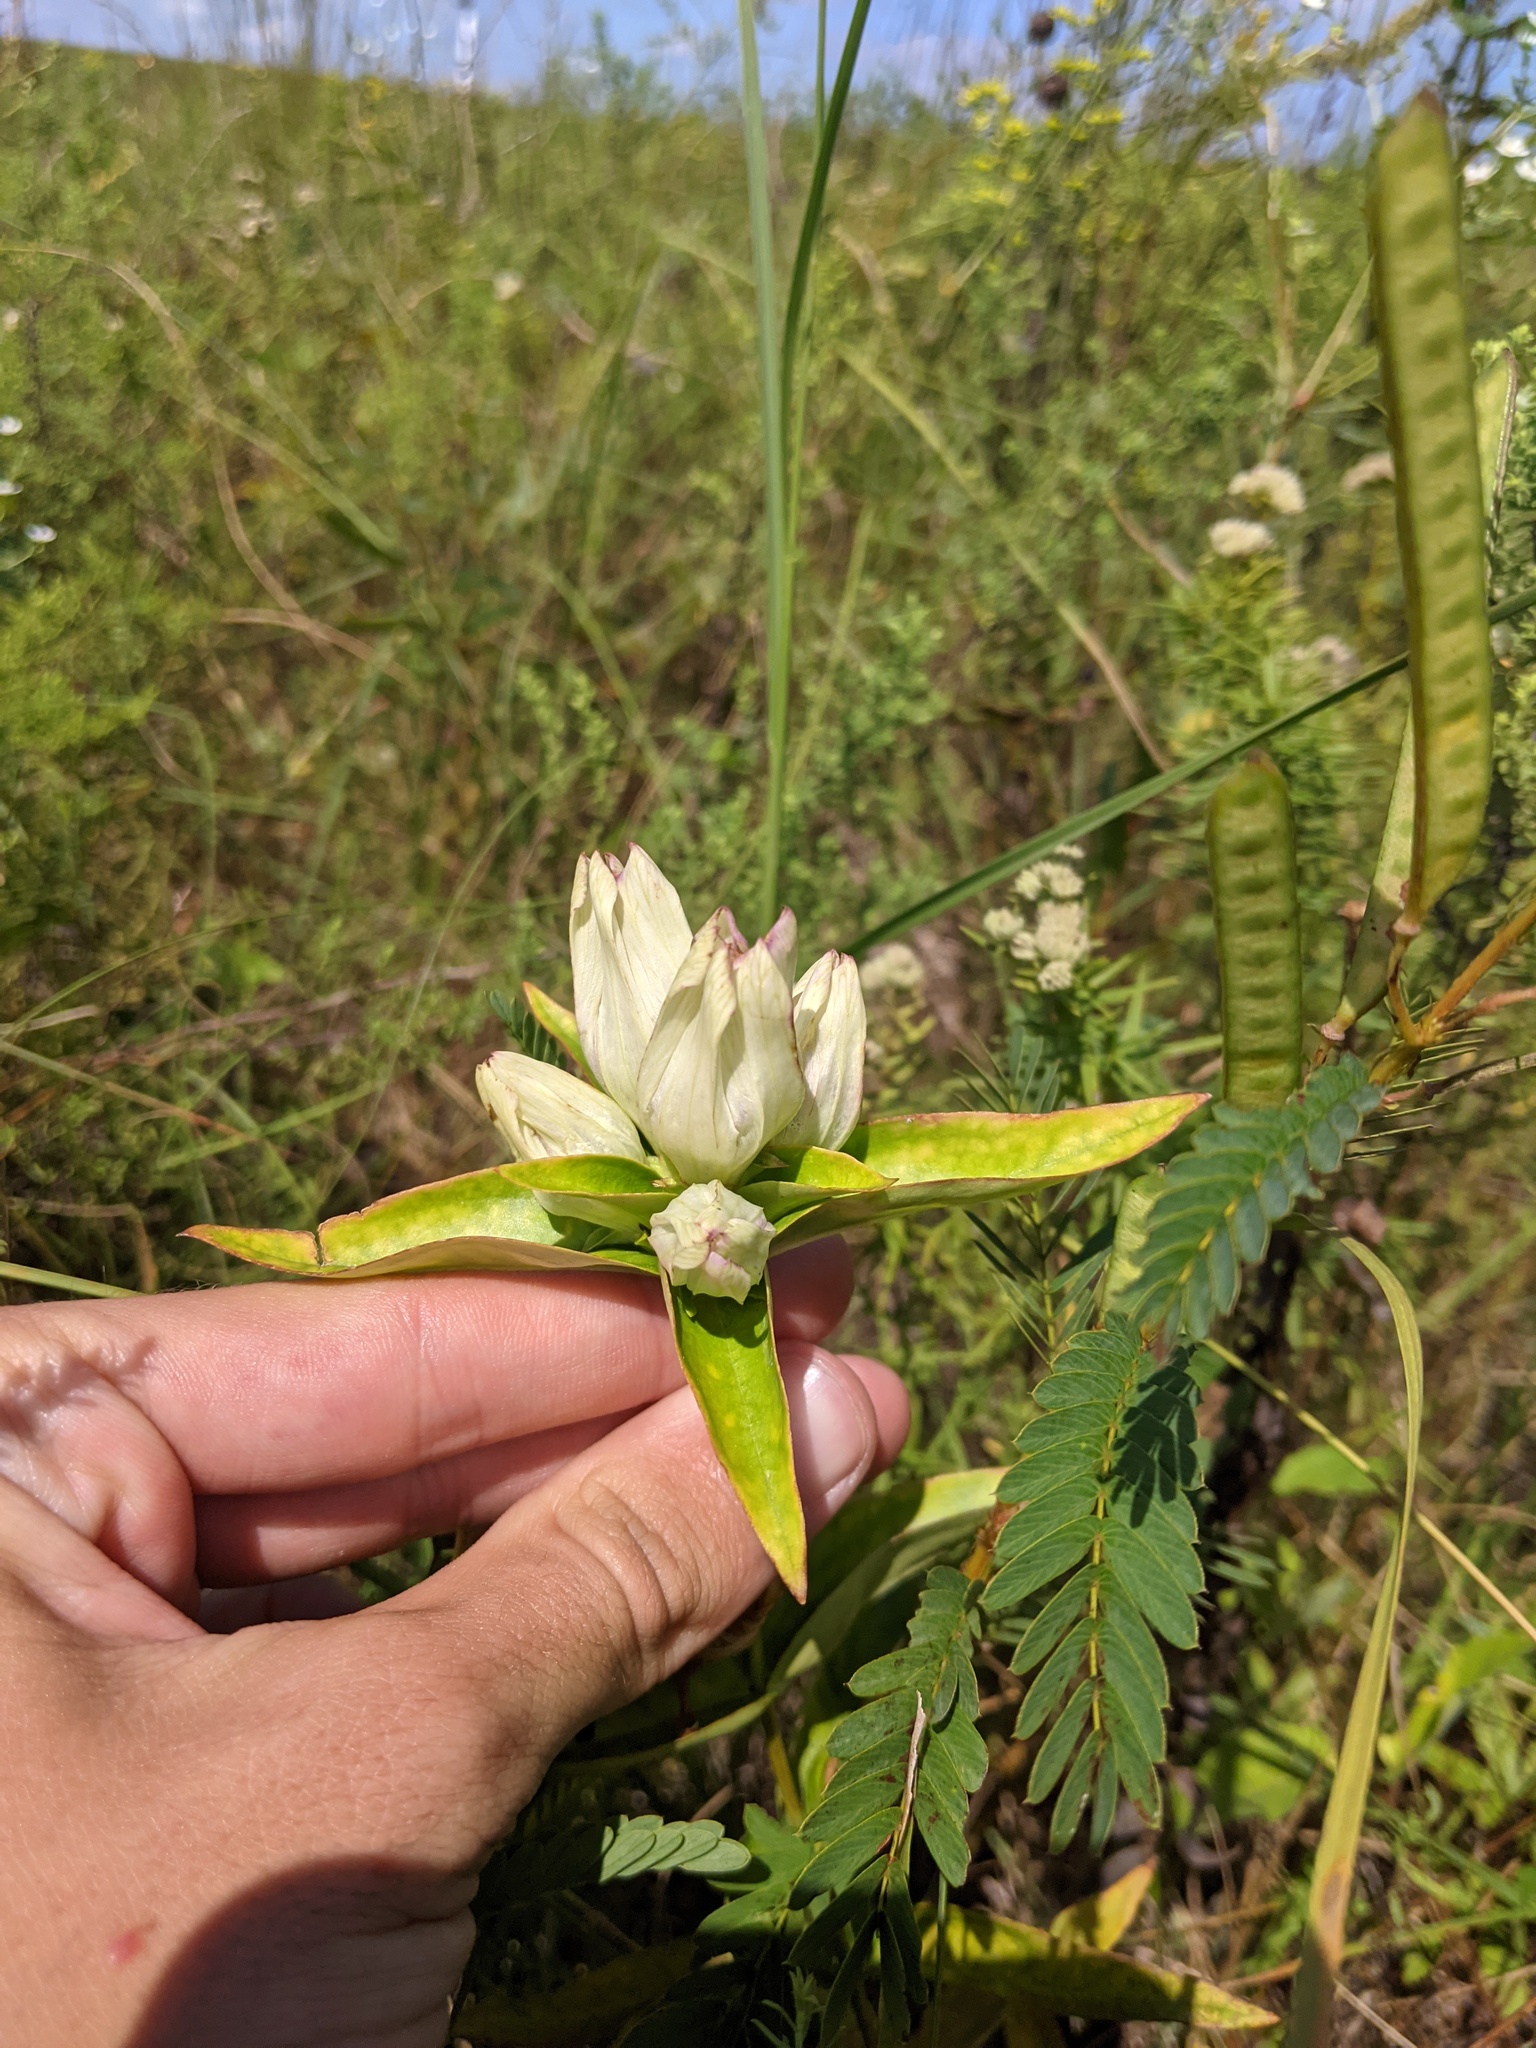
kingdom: Plantae
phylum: Tracheophyta
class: Magnoliopsida
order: Gentianales
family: Gentianaceae
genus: Gentiana
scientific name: Gentiana alba
